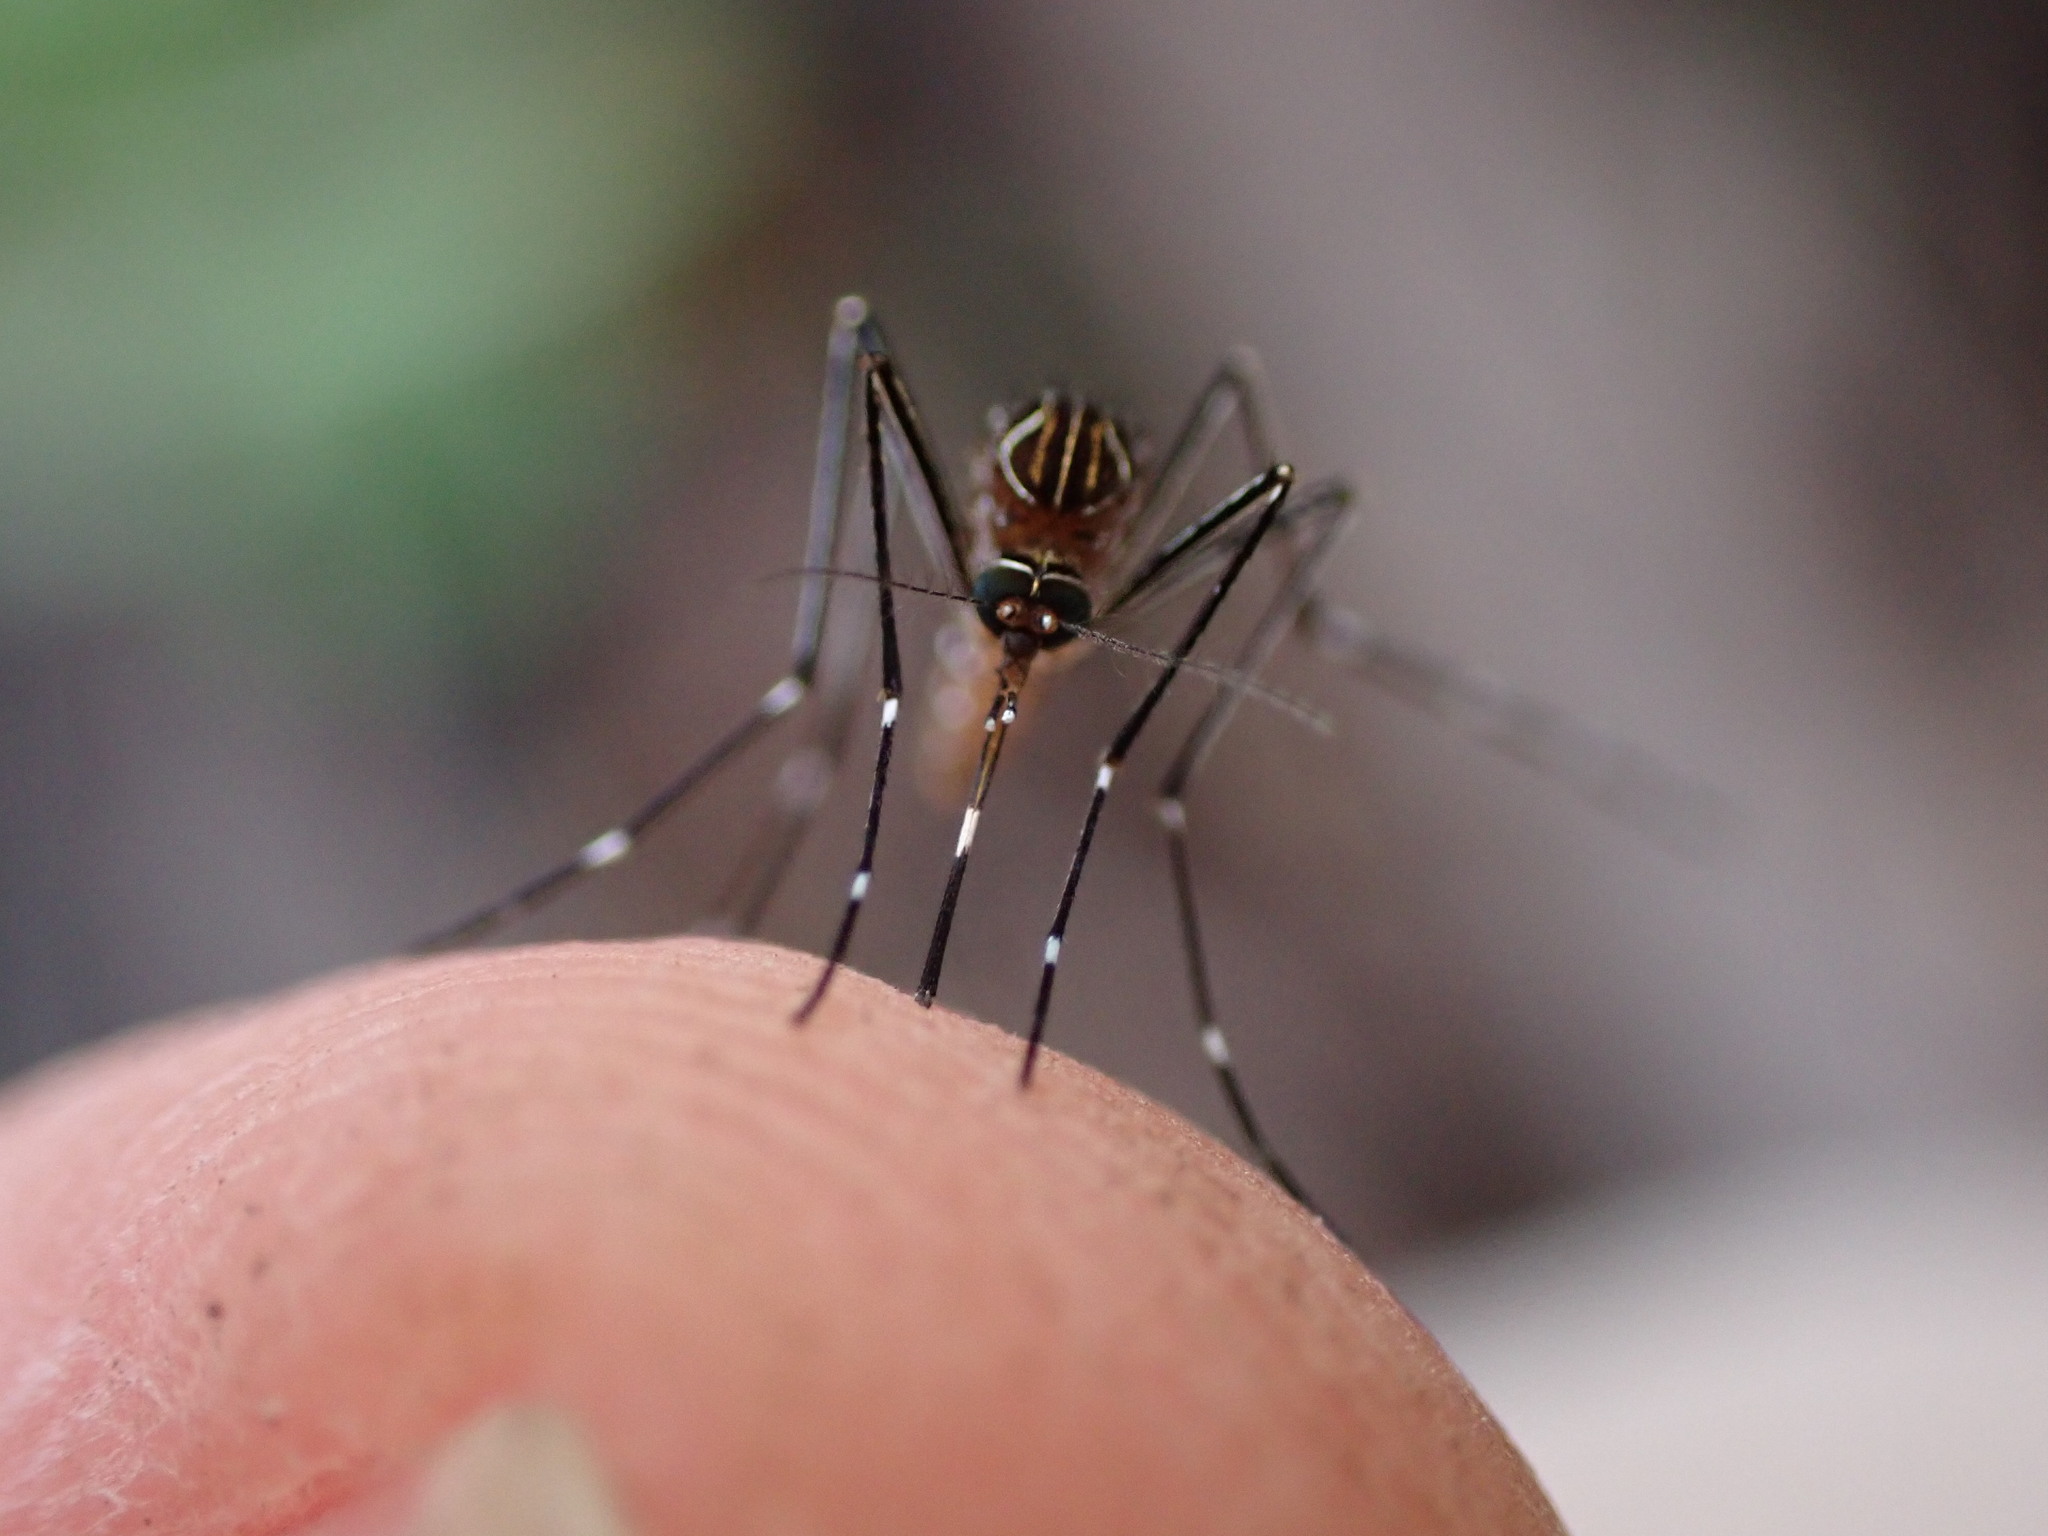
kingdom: Animalia
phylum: Arthropoda
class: Insecta
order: Diptera
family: Culicidae
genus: Aedes
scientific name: Aedes notoscriptus
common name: Australian backyard mosquito
